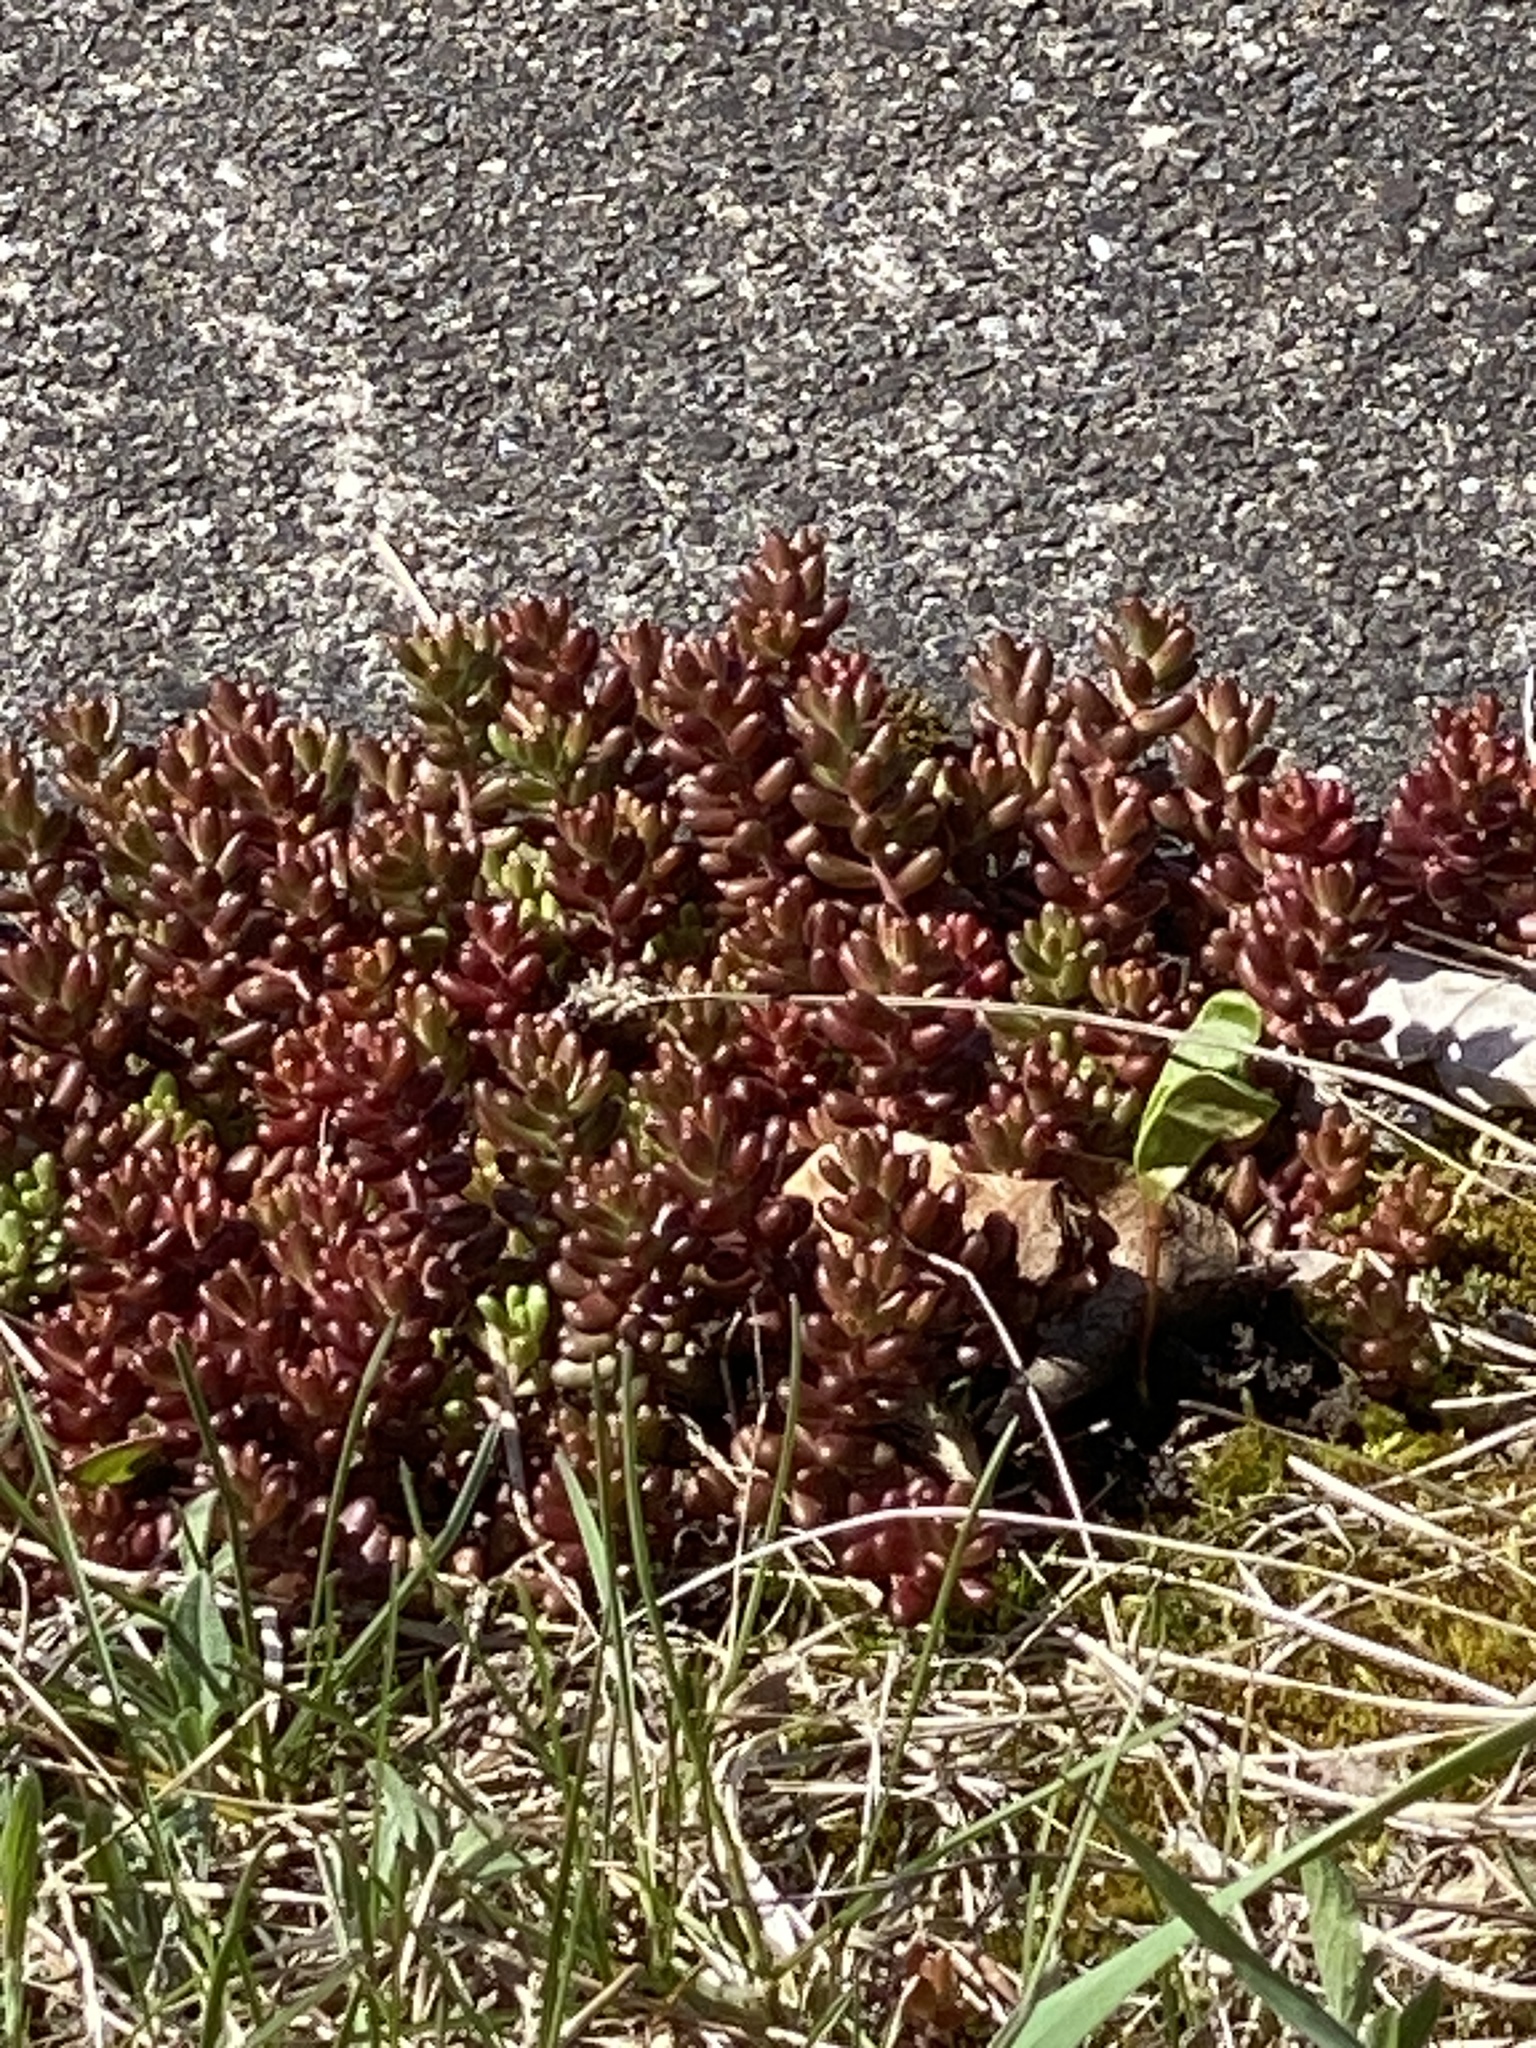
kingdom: Plantae
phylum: Tracheophyta
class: Magnoliopsida
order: Saxifragales
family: Crassulaceae
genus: Sedum
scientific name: Sedum album
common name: White stonecrop
